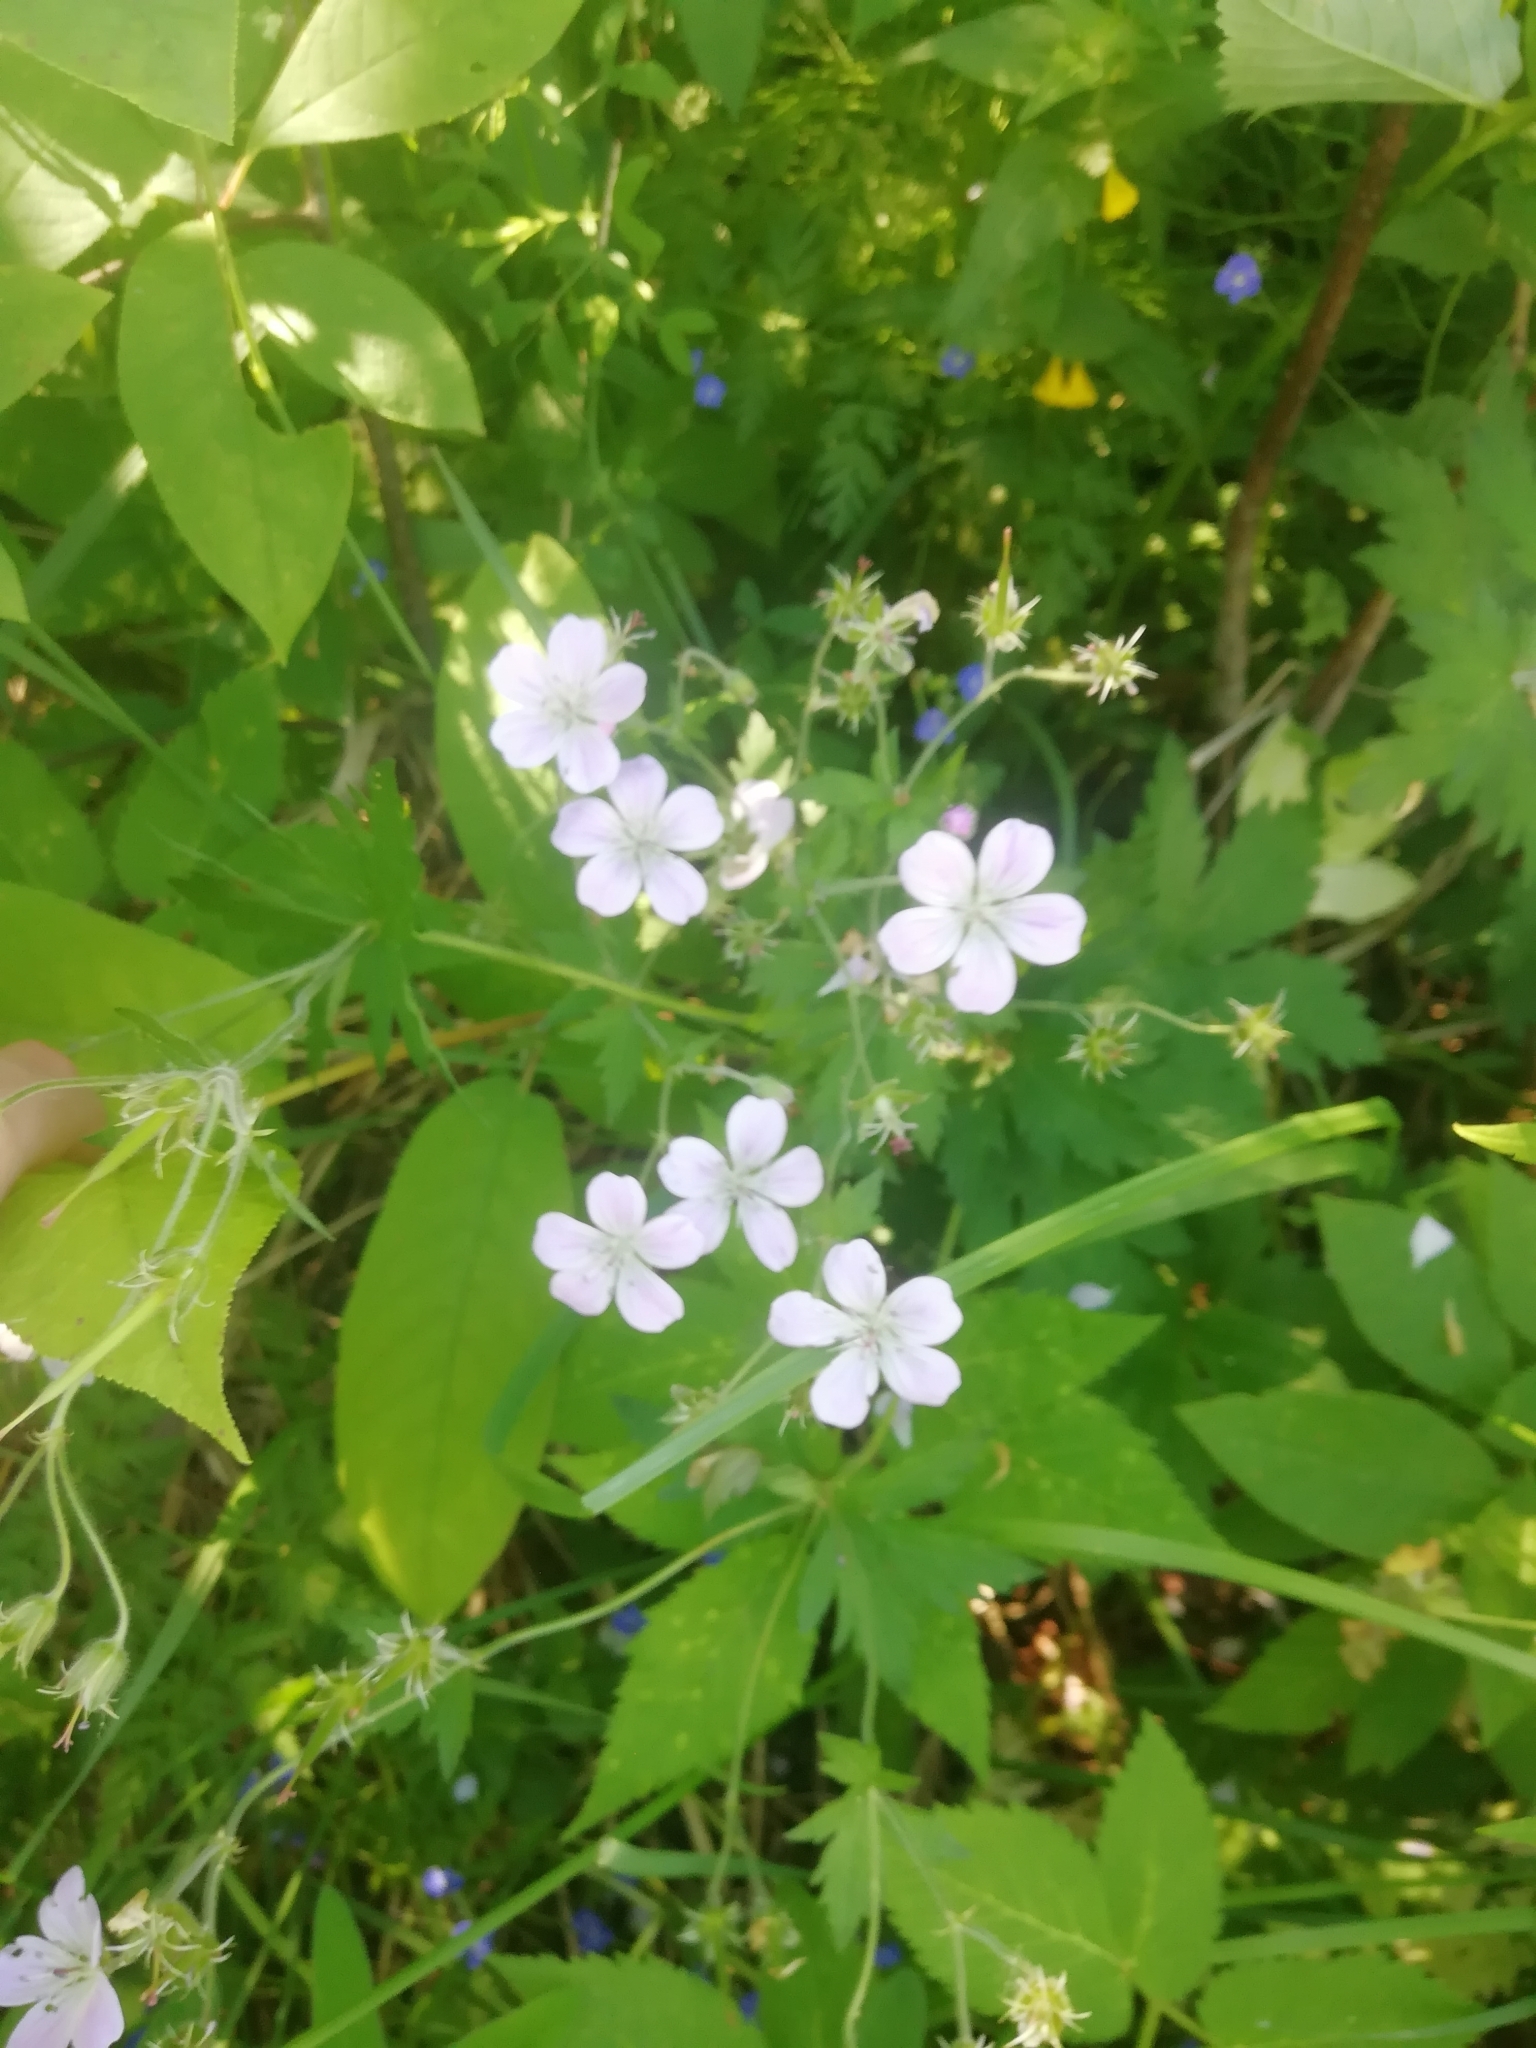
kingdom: Plantae
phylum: Tracheophyta
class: Magnoliopsida
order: Geraniales
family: Geraniaceae
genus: Geranium
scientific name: Geranium sylvaticum
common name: Wood crane's-bill
